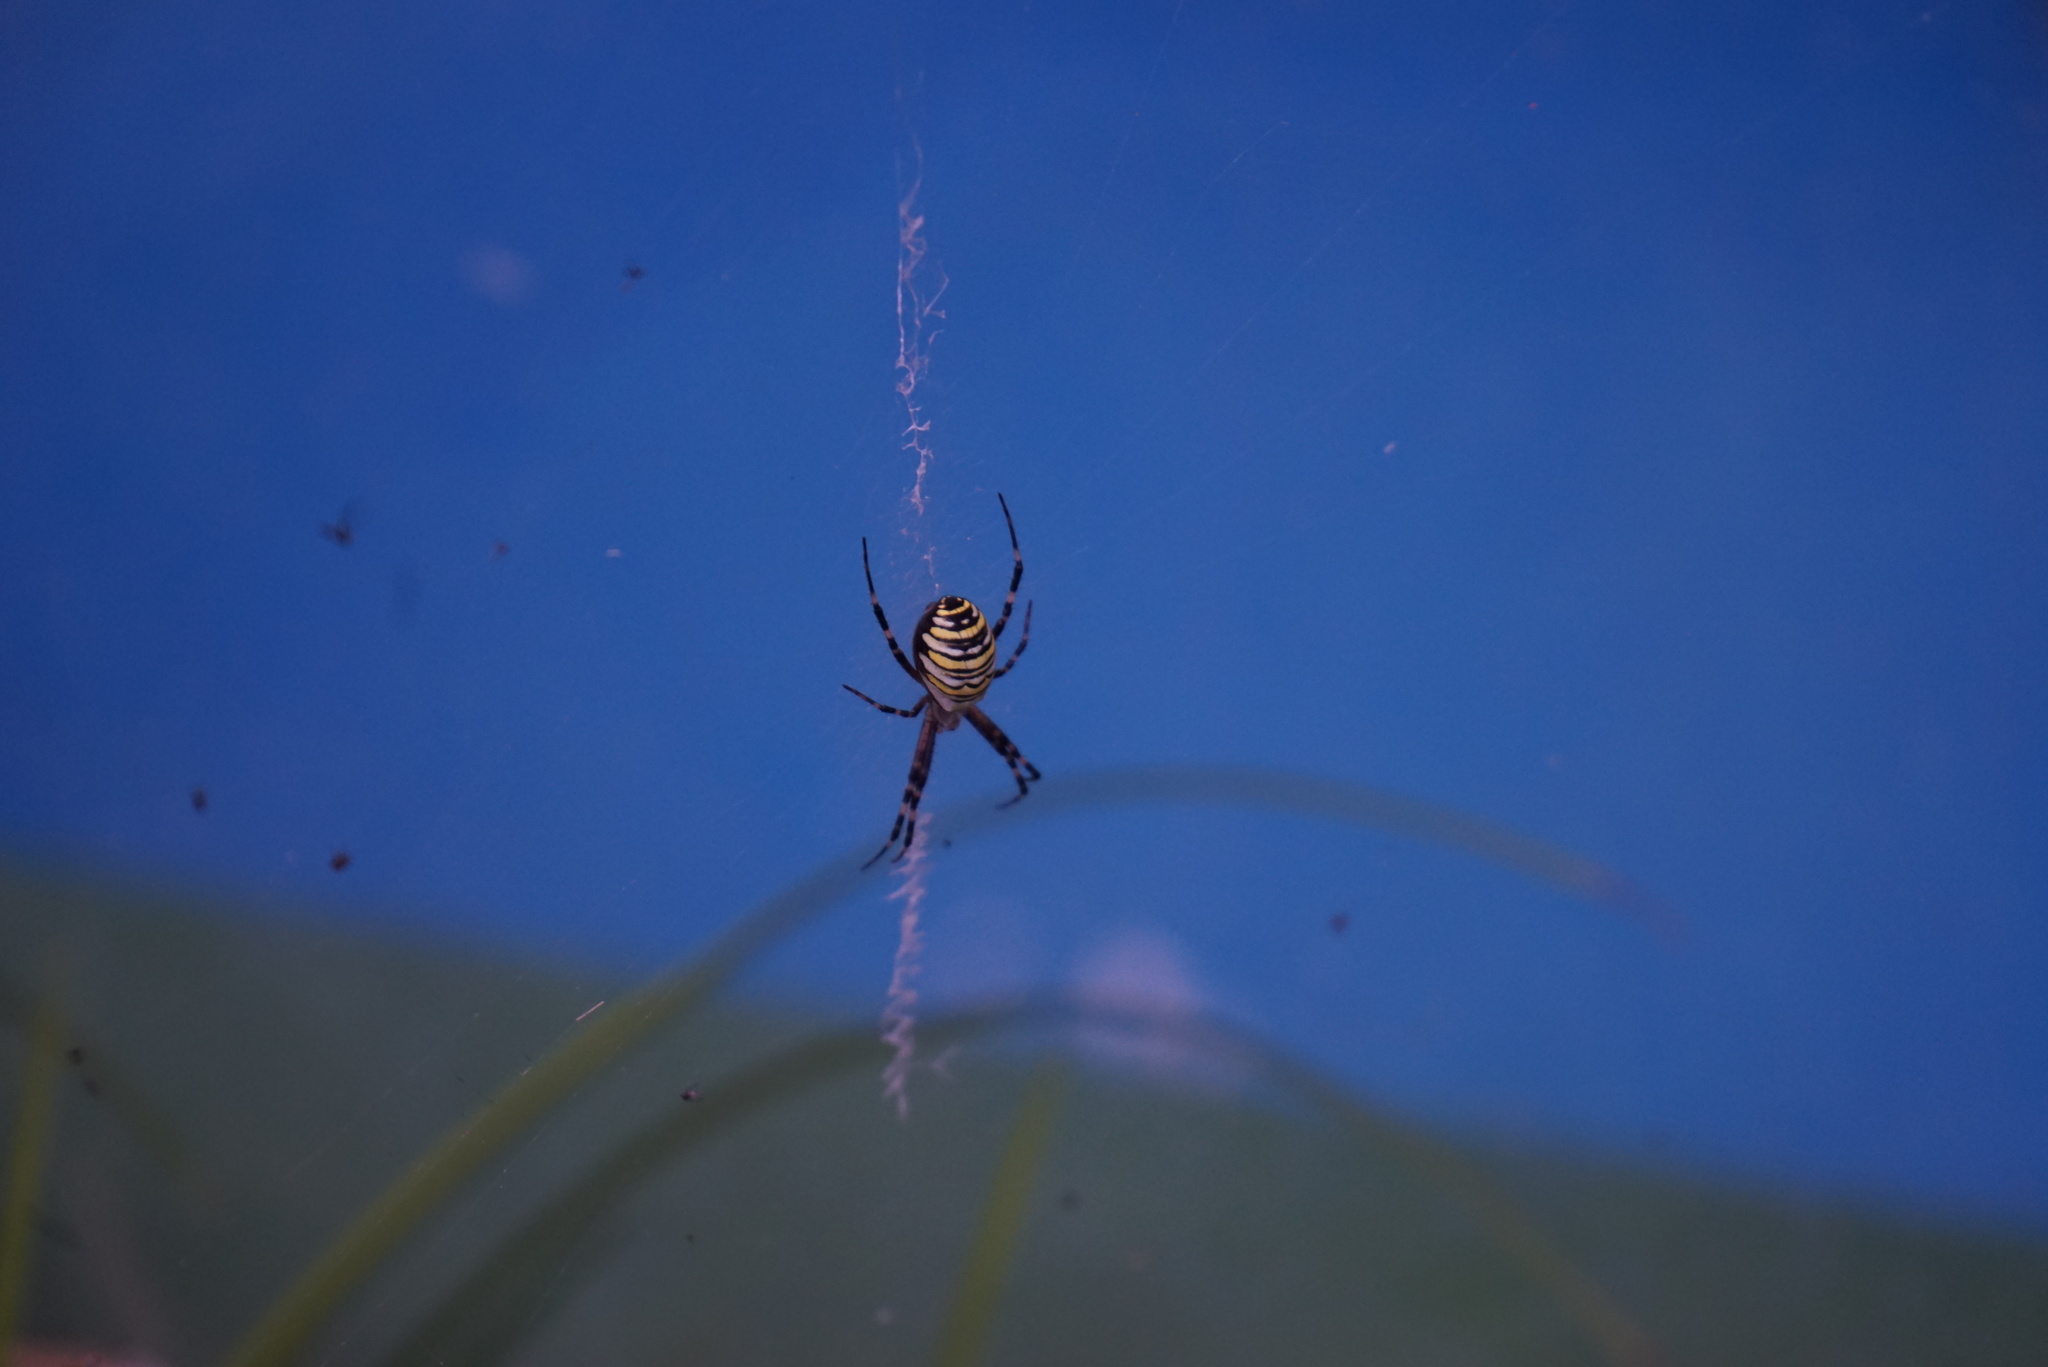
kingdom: Animalia
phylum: Arthropoda
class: Arachnida
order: Araneae
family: Araneidae
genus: Argiope
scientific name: Argiope bruennichi
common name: Wasp spider
